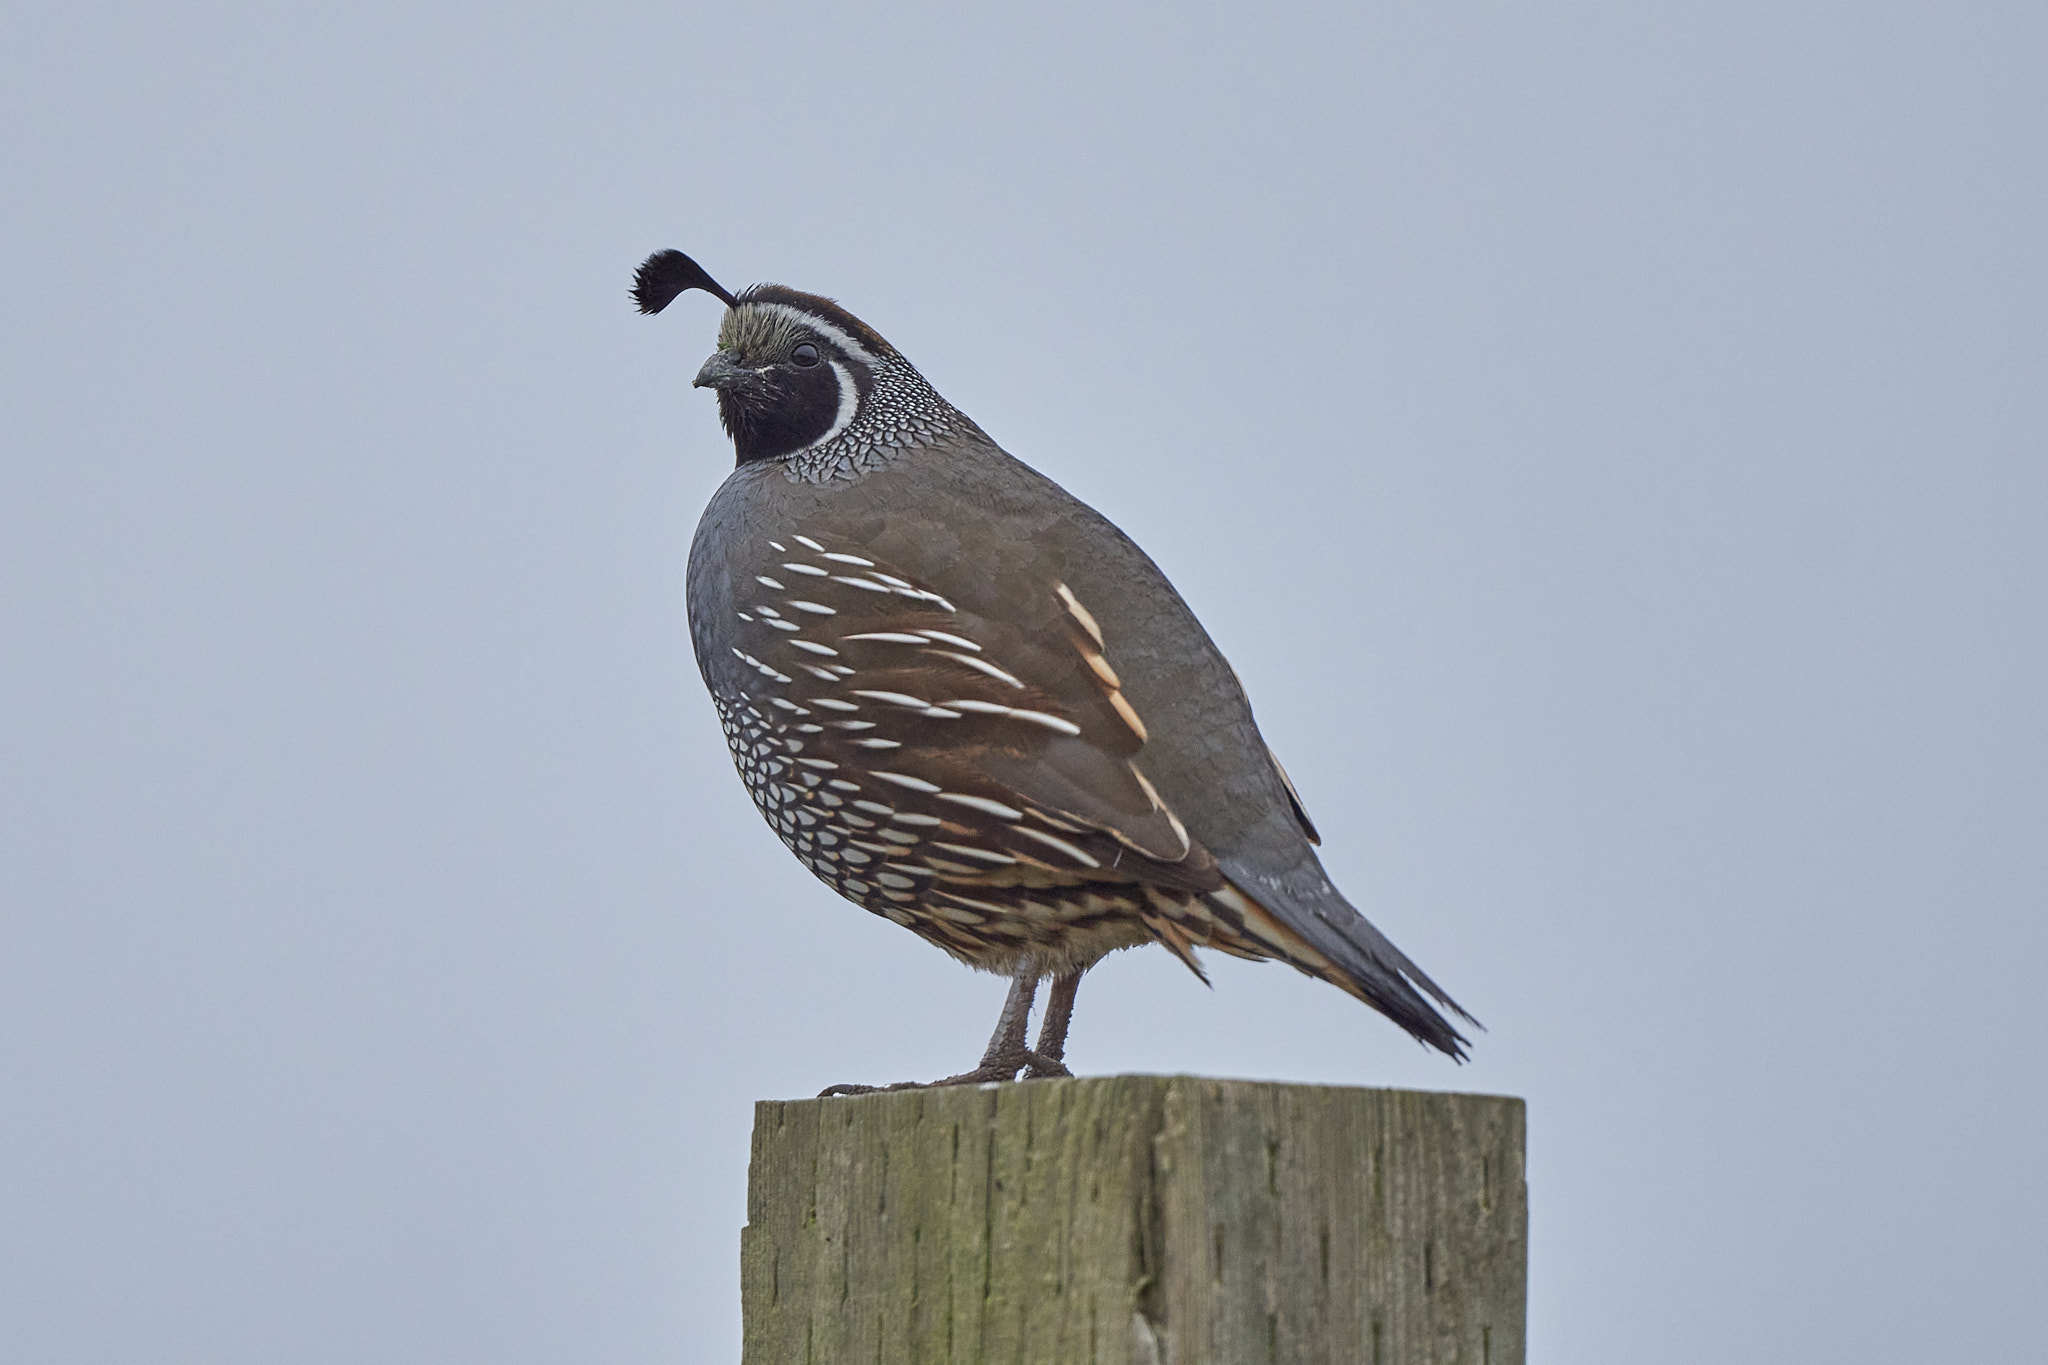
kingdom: Animalia
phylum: Chordata
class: Aves
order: Galliformes
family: Odontophoridae
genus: Callipepla
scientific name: Callipepla californica
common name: California quail
